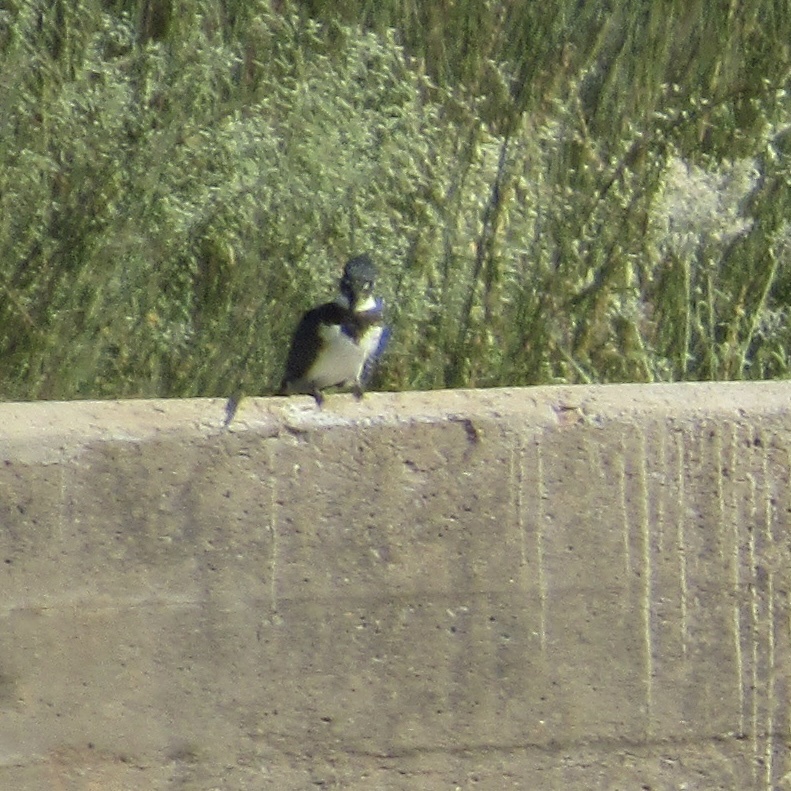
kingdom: Animalia
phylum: Chordata
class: Aves
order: Coraciiformes
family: Alcedinidae
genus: Megaceryle
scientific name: Megaceryle alcyon
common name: Belted kingfisher
